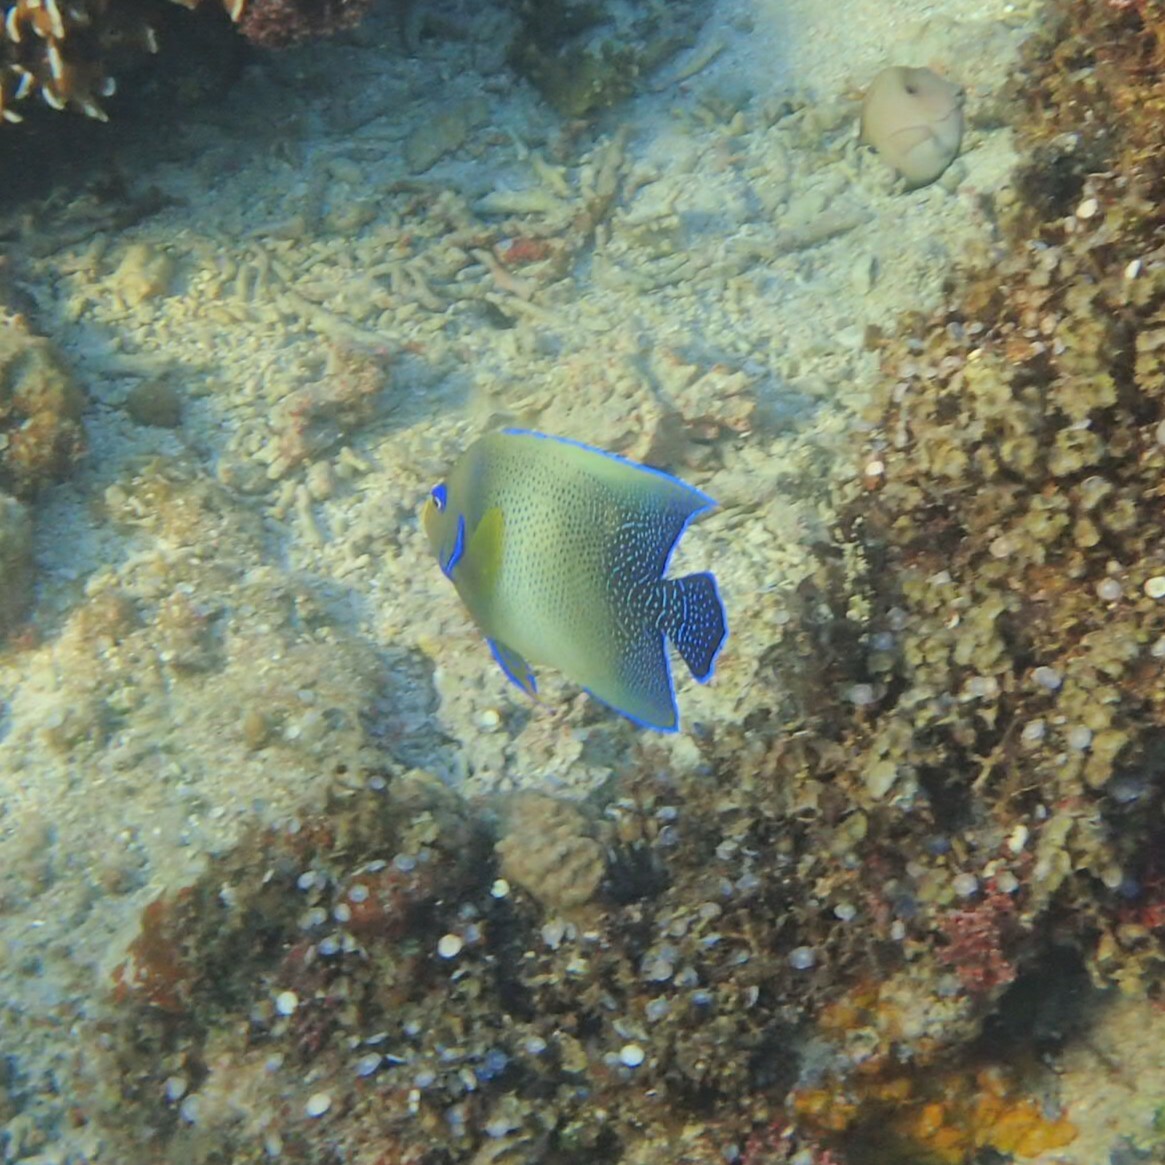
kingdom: Animalia
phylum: Chordata
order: Perciformes
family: Pomacanthidae
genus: Pomacanthus
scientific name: Pomacanthus semicirculatus
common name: Semicircle angelfish
